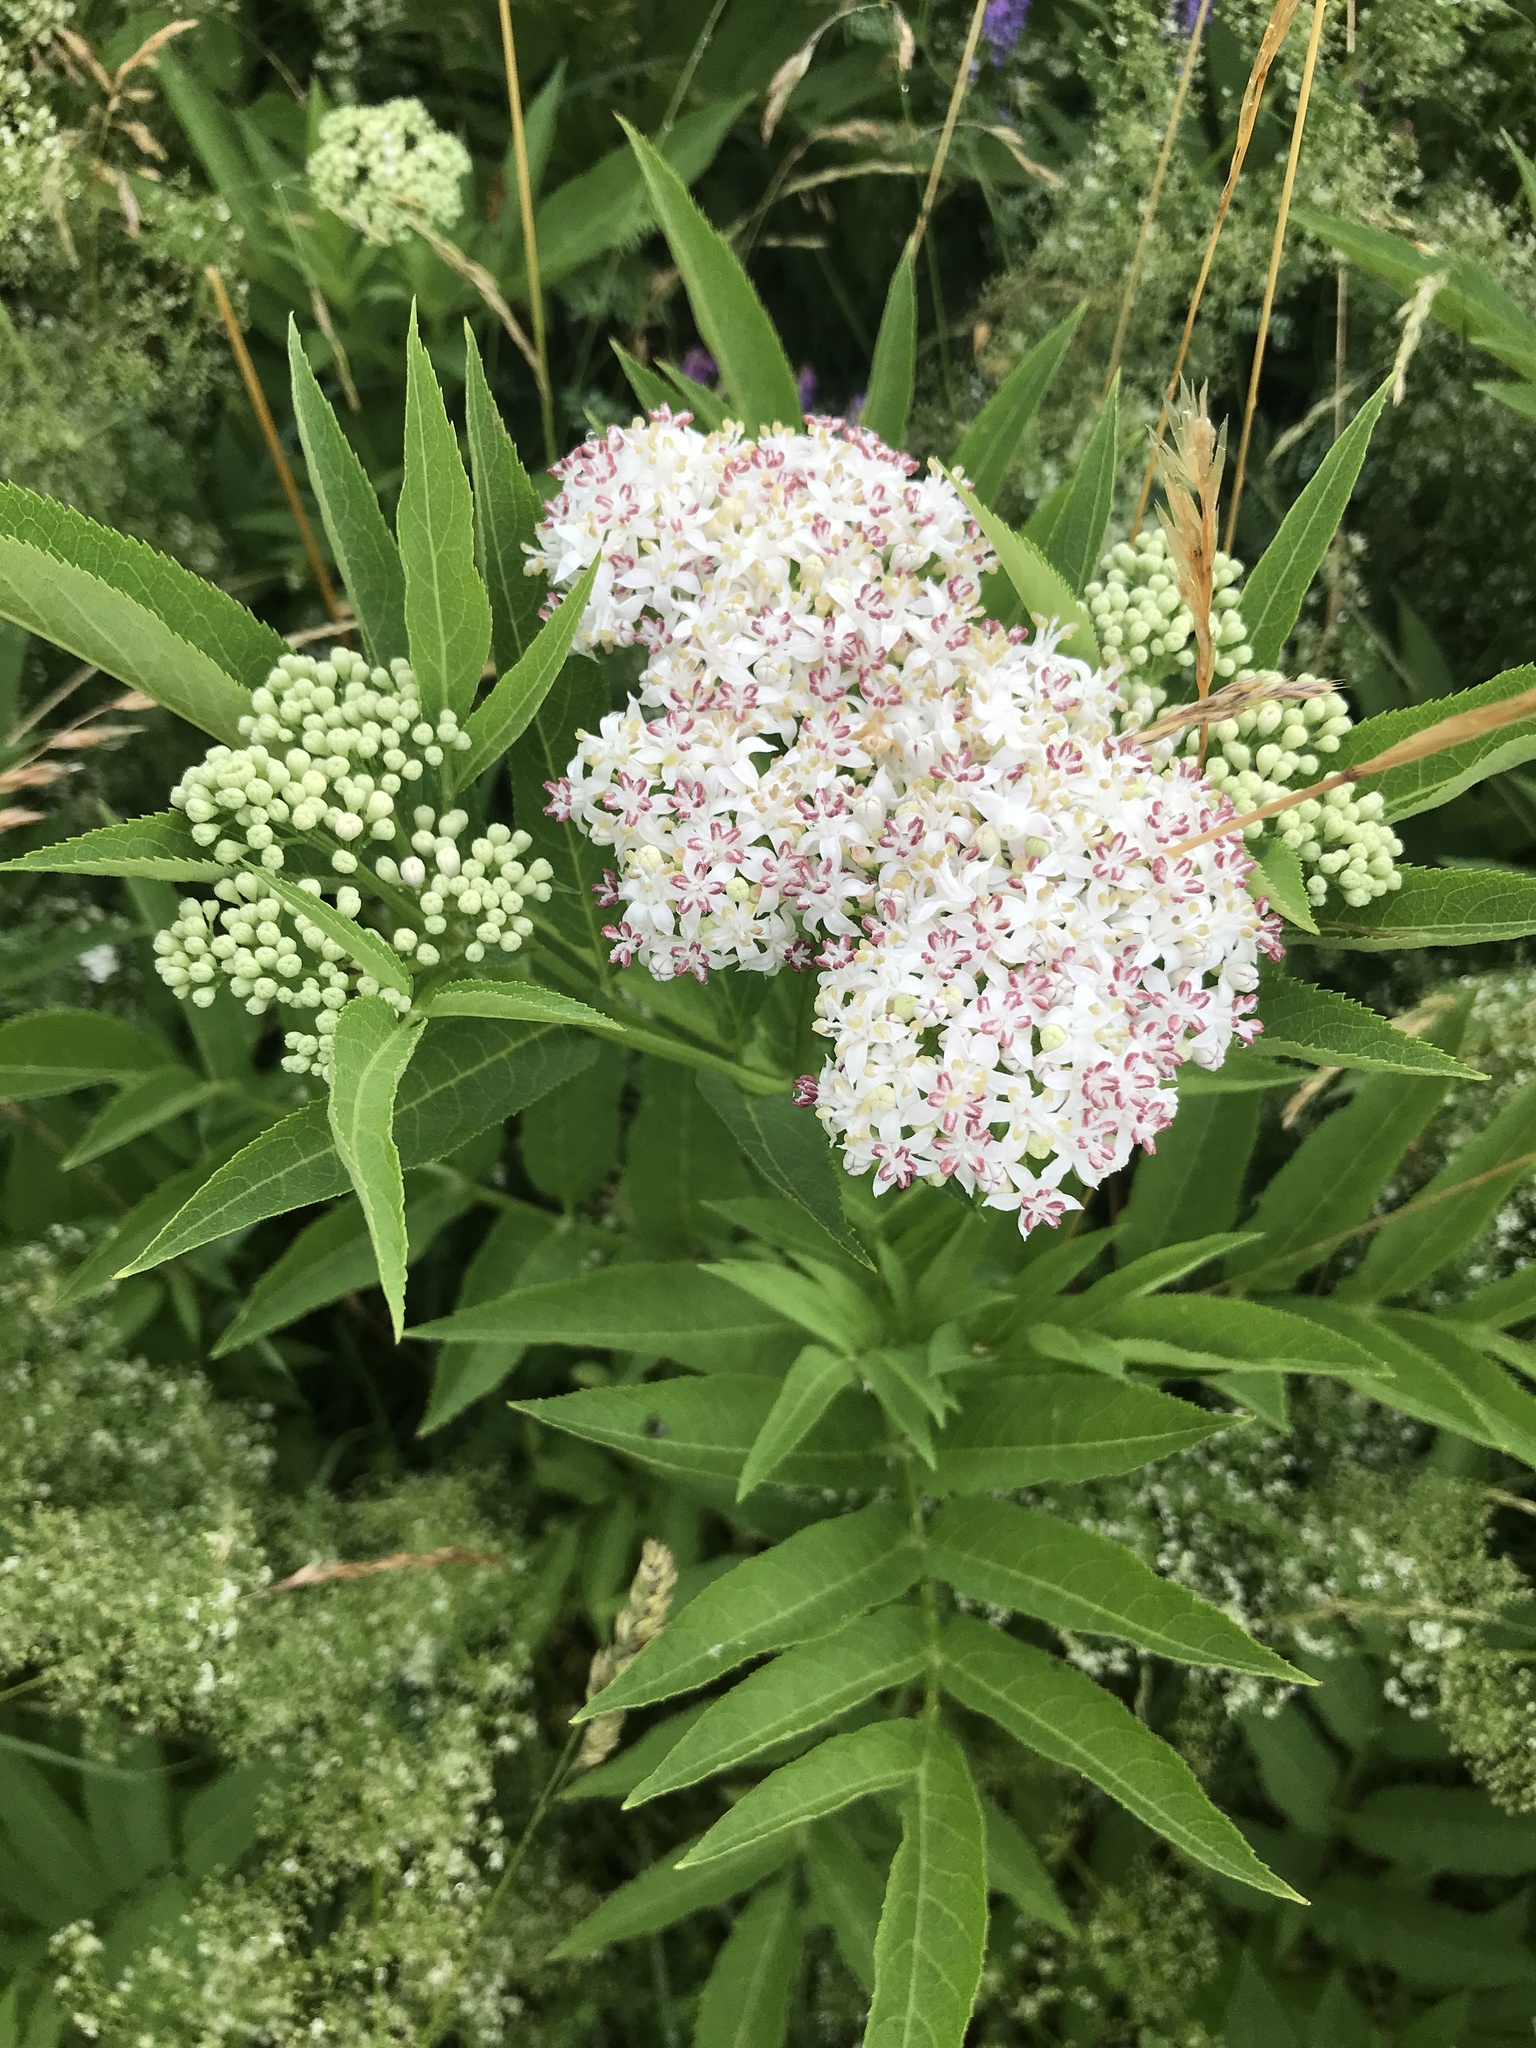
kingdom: Plantae
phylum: Tracheophyta
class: Magnoliopsida
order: Dipsacales
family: Viburnaceae
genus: Sambucus
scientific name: Sambucus ebulus
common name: Dwarf elder
